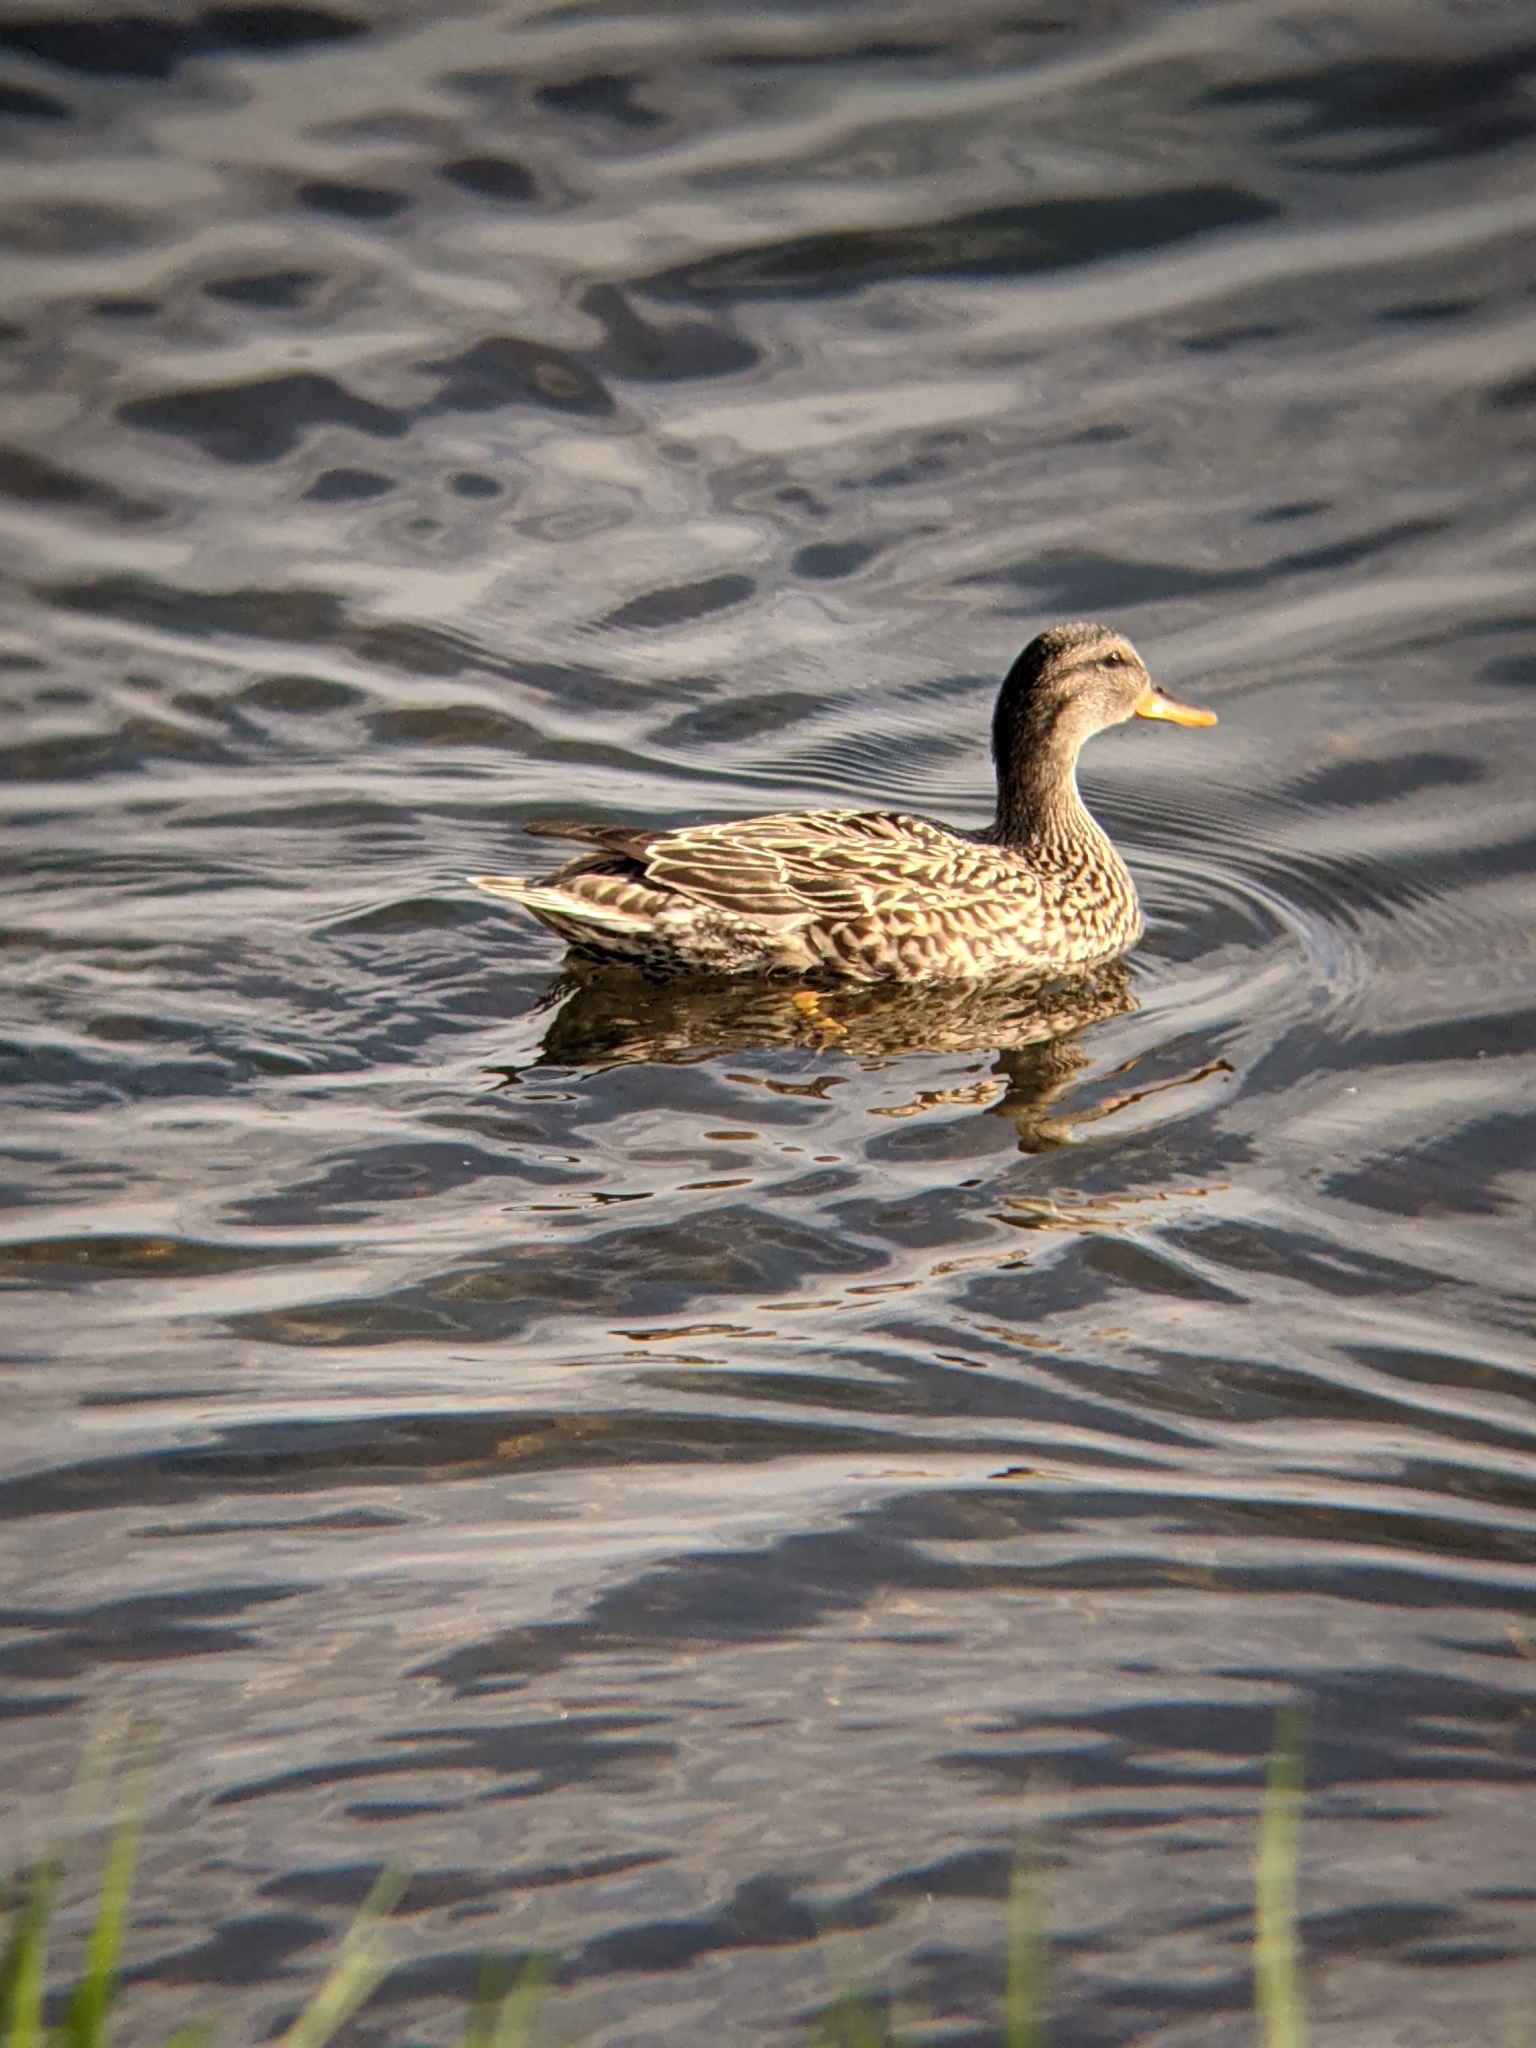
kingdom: Animalia
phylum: Chordata
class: Aves
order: Anseriformes
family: Anatidae
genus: Mareca
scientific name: Mareca strepera
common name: Gadwall
